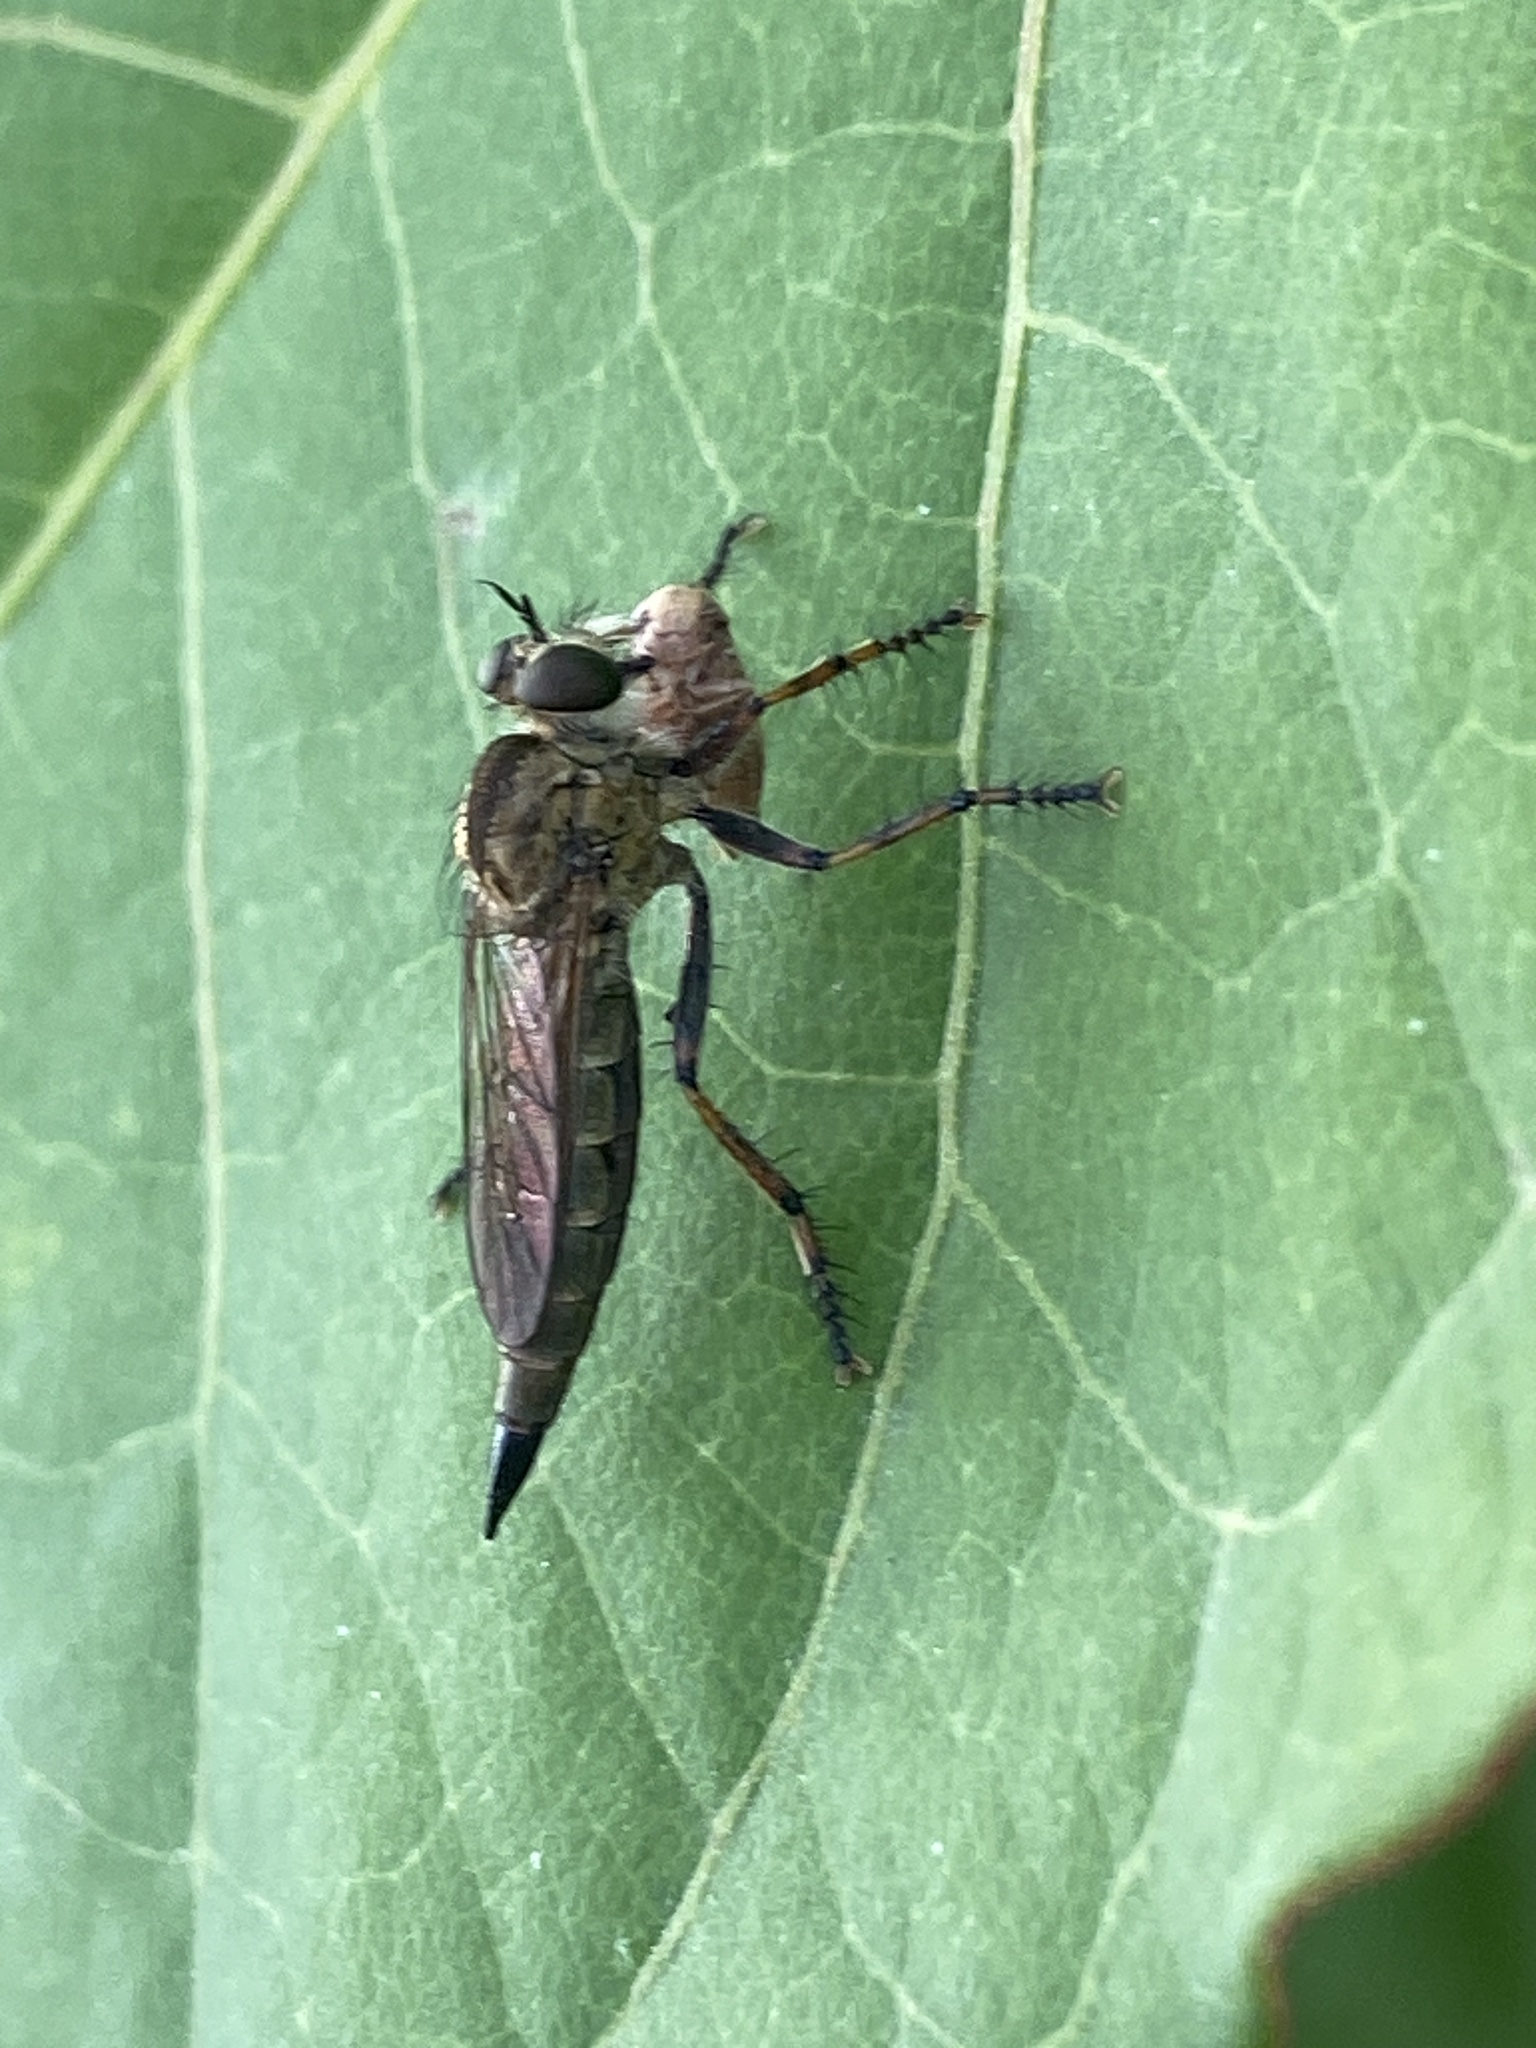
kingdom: Animalia
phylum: Arthropoda
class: Insecta
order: Diptera
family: Asilidae
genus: Epitriptus
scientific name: Epitriptus cingulatus
